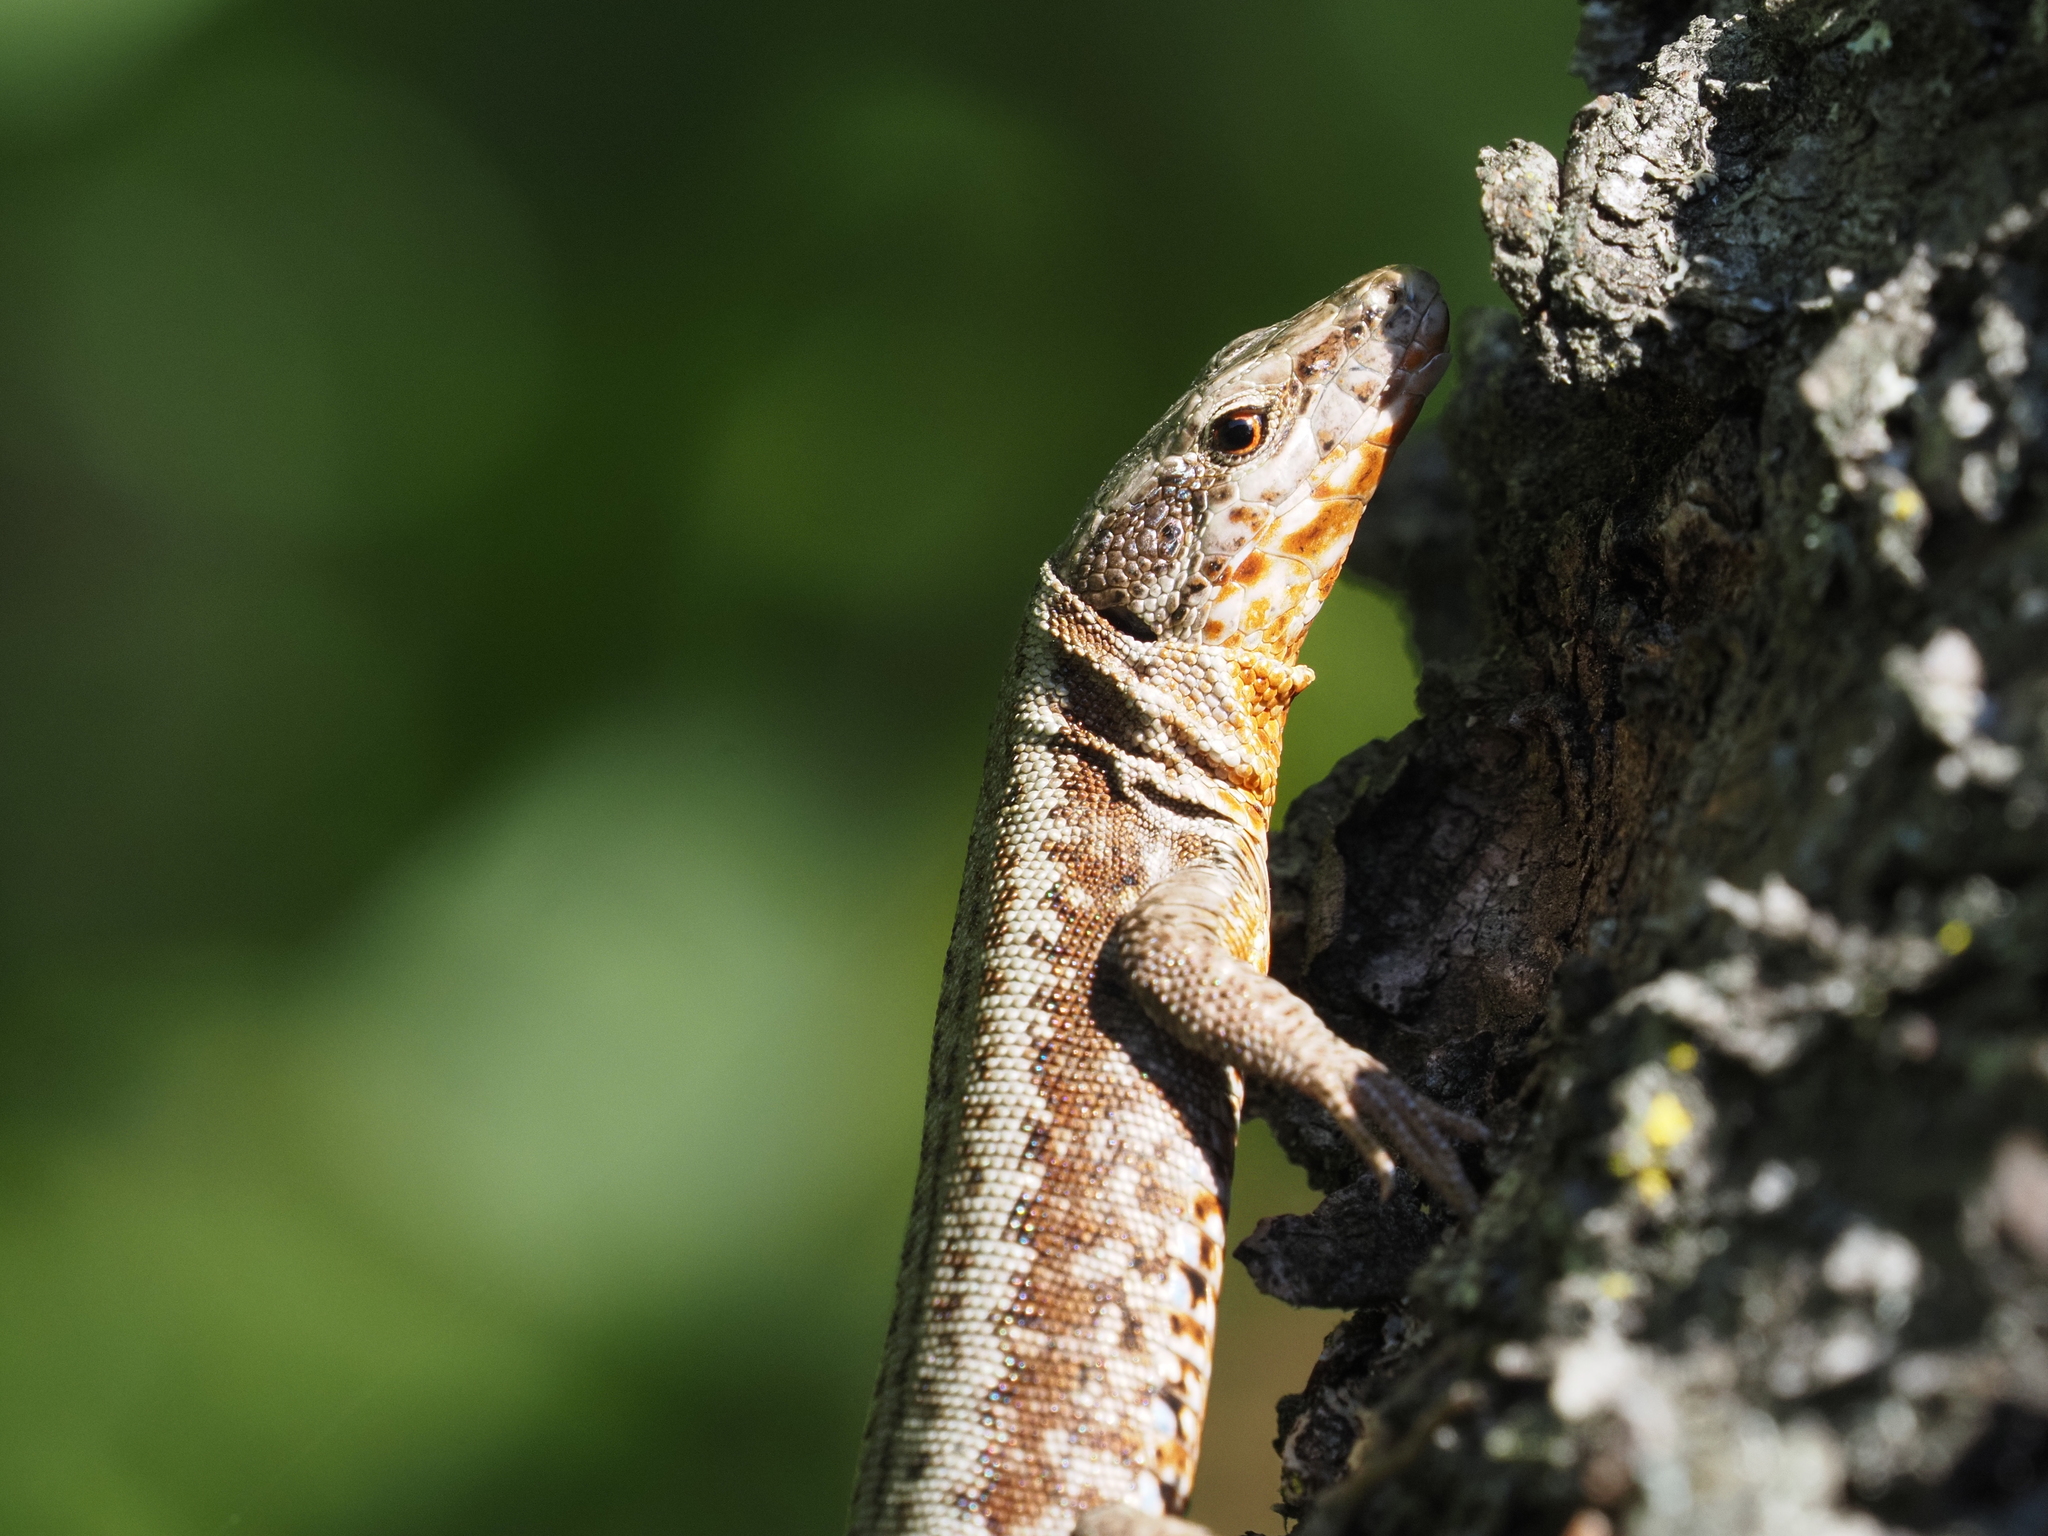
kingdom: Animalia
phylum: Chordata
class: Squamata
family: Lacertidae
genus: Podarcis
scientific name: Podarcis muralis
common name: Common wall lizard
